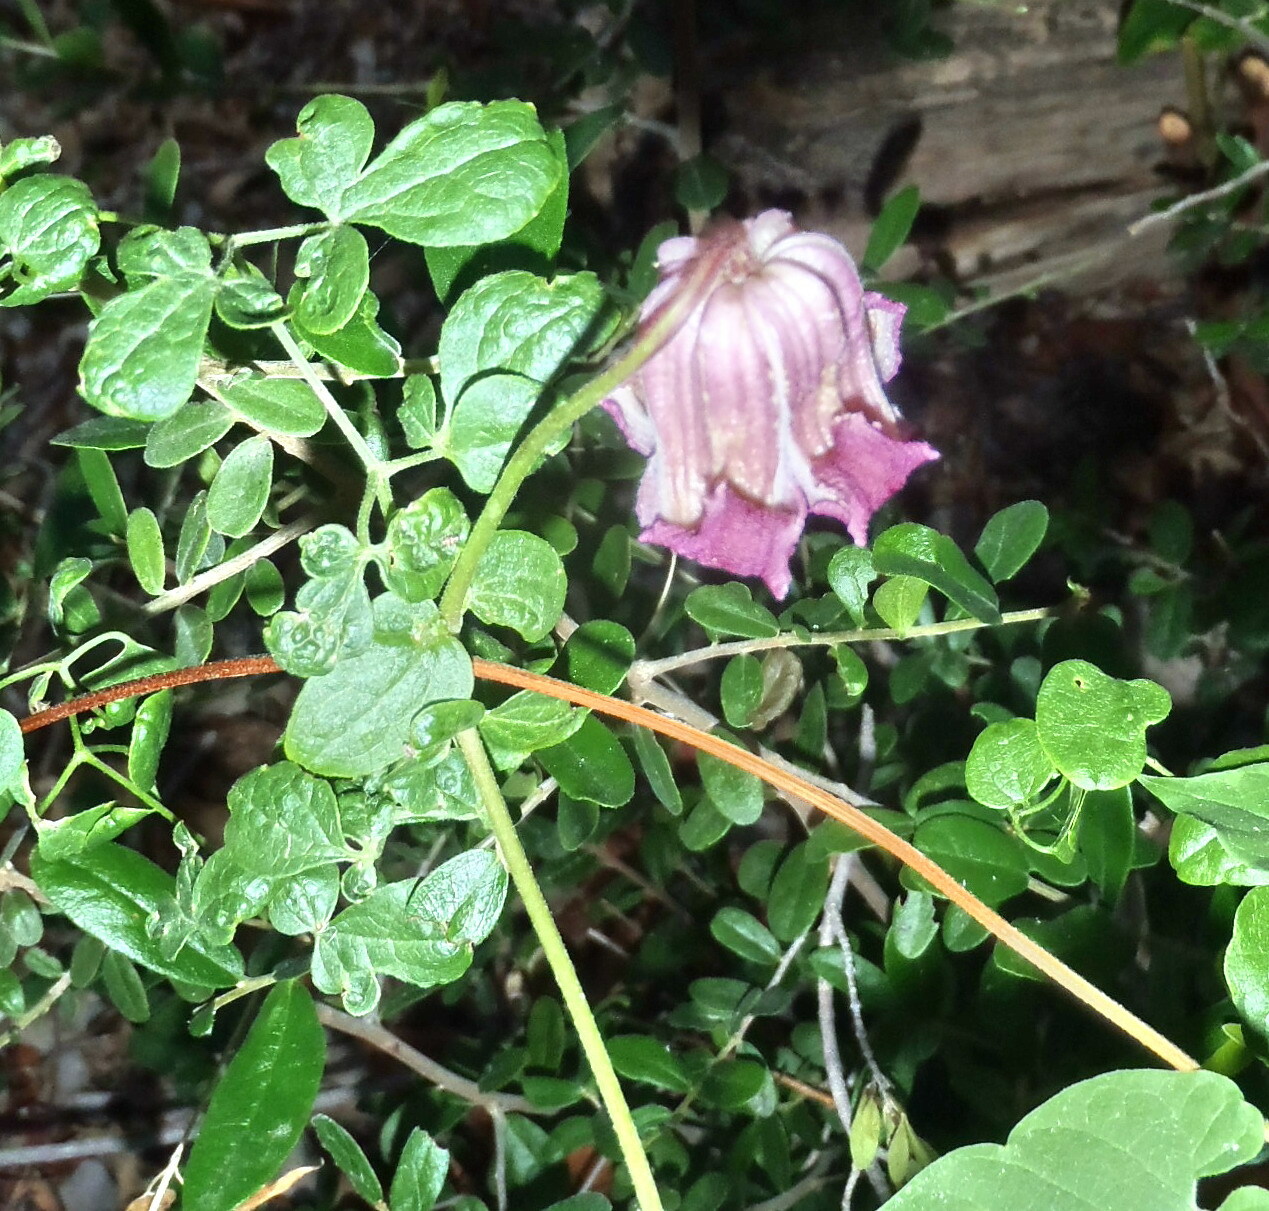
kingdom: Plantae
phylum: Tracheophyta
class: Magnoliopsida
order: Ranunculales
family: Ranunculaceae
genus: Clematis
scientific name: Clematis pitcheri
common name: Bellflower clematis
